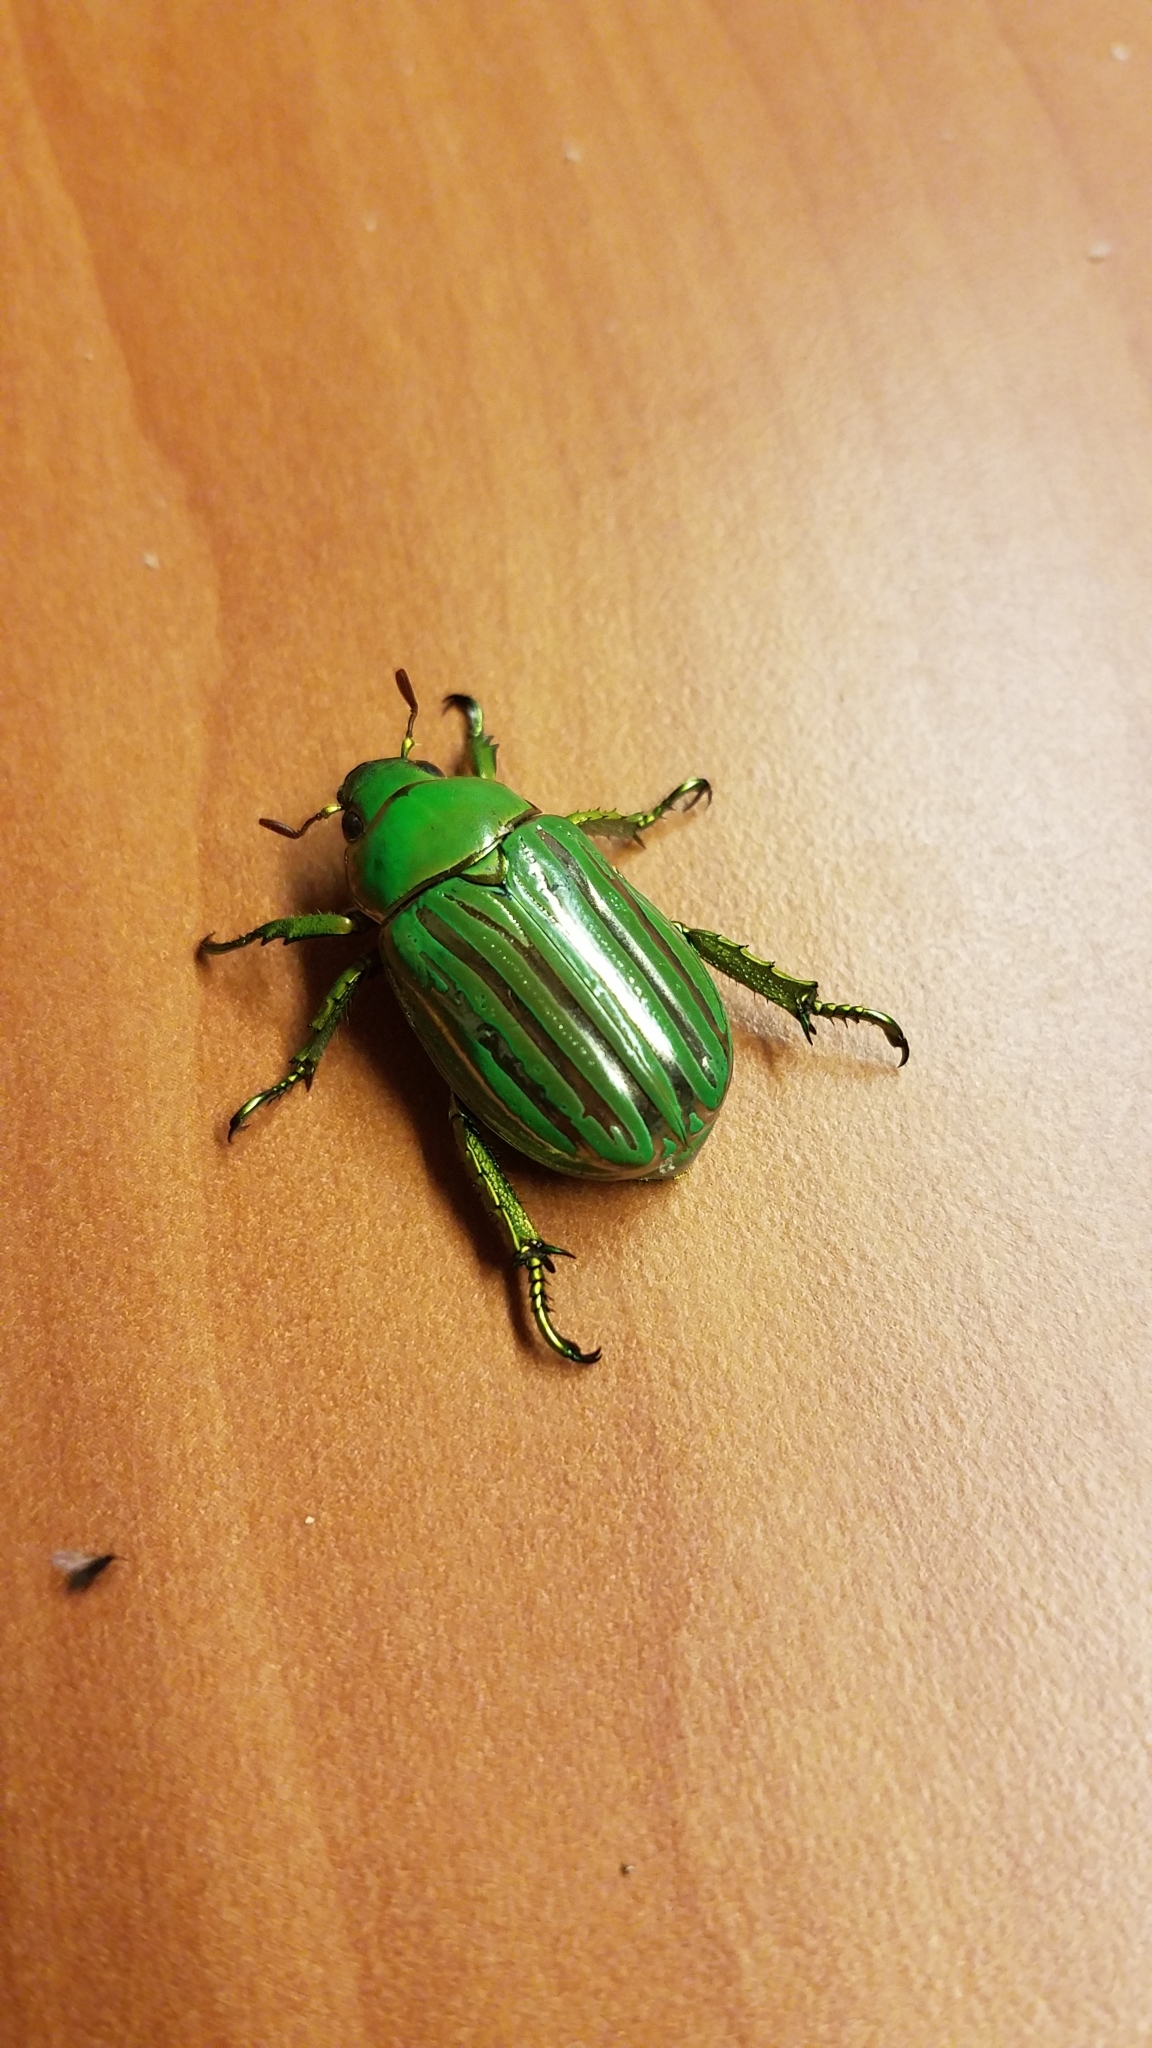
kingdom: Animalia
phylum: Arthropoda
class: Insecta
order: Coleoptera
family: Scarabaeidae
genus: Chrysina
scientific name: Chrysina gloriosa
